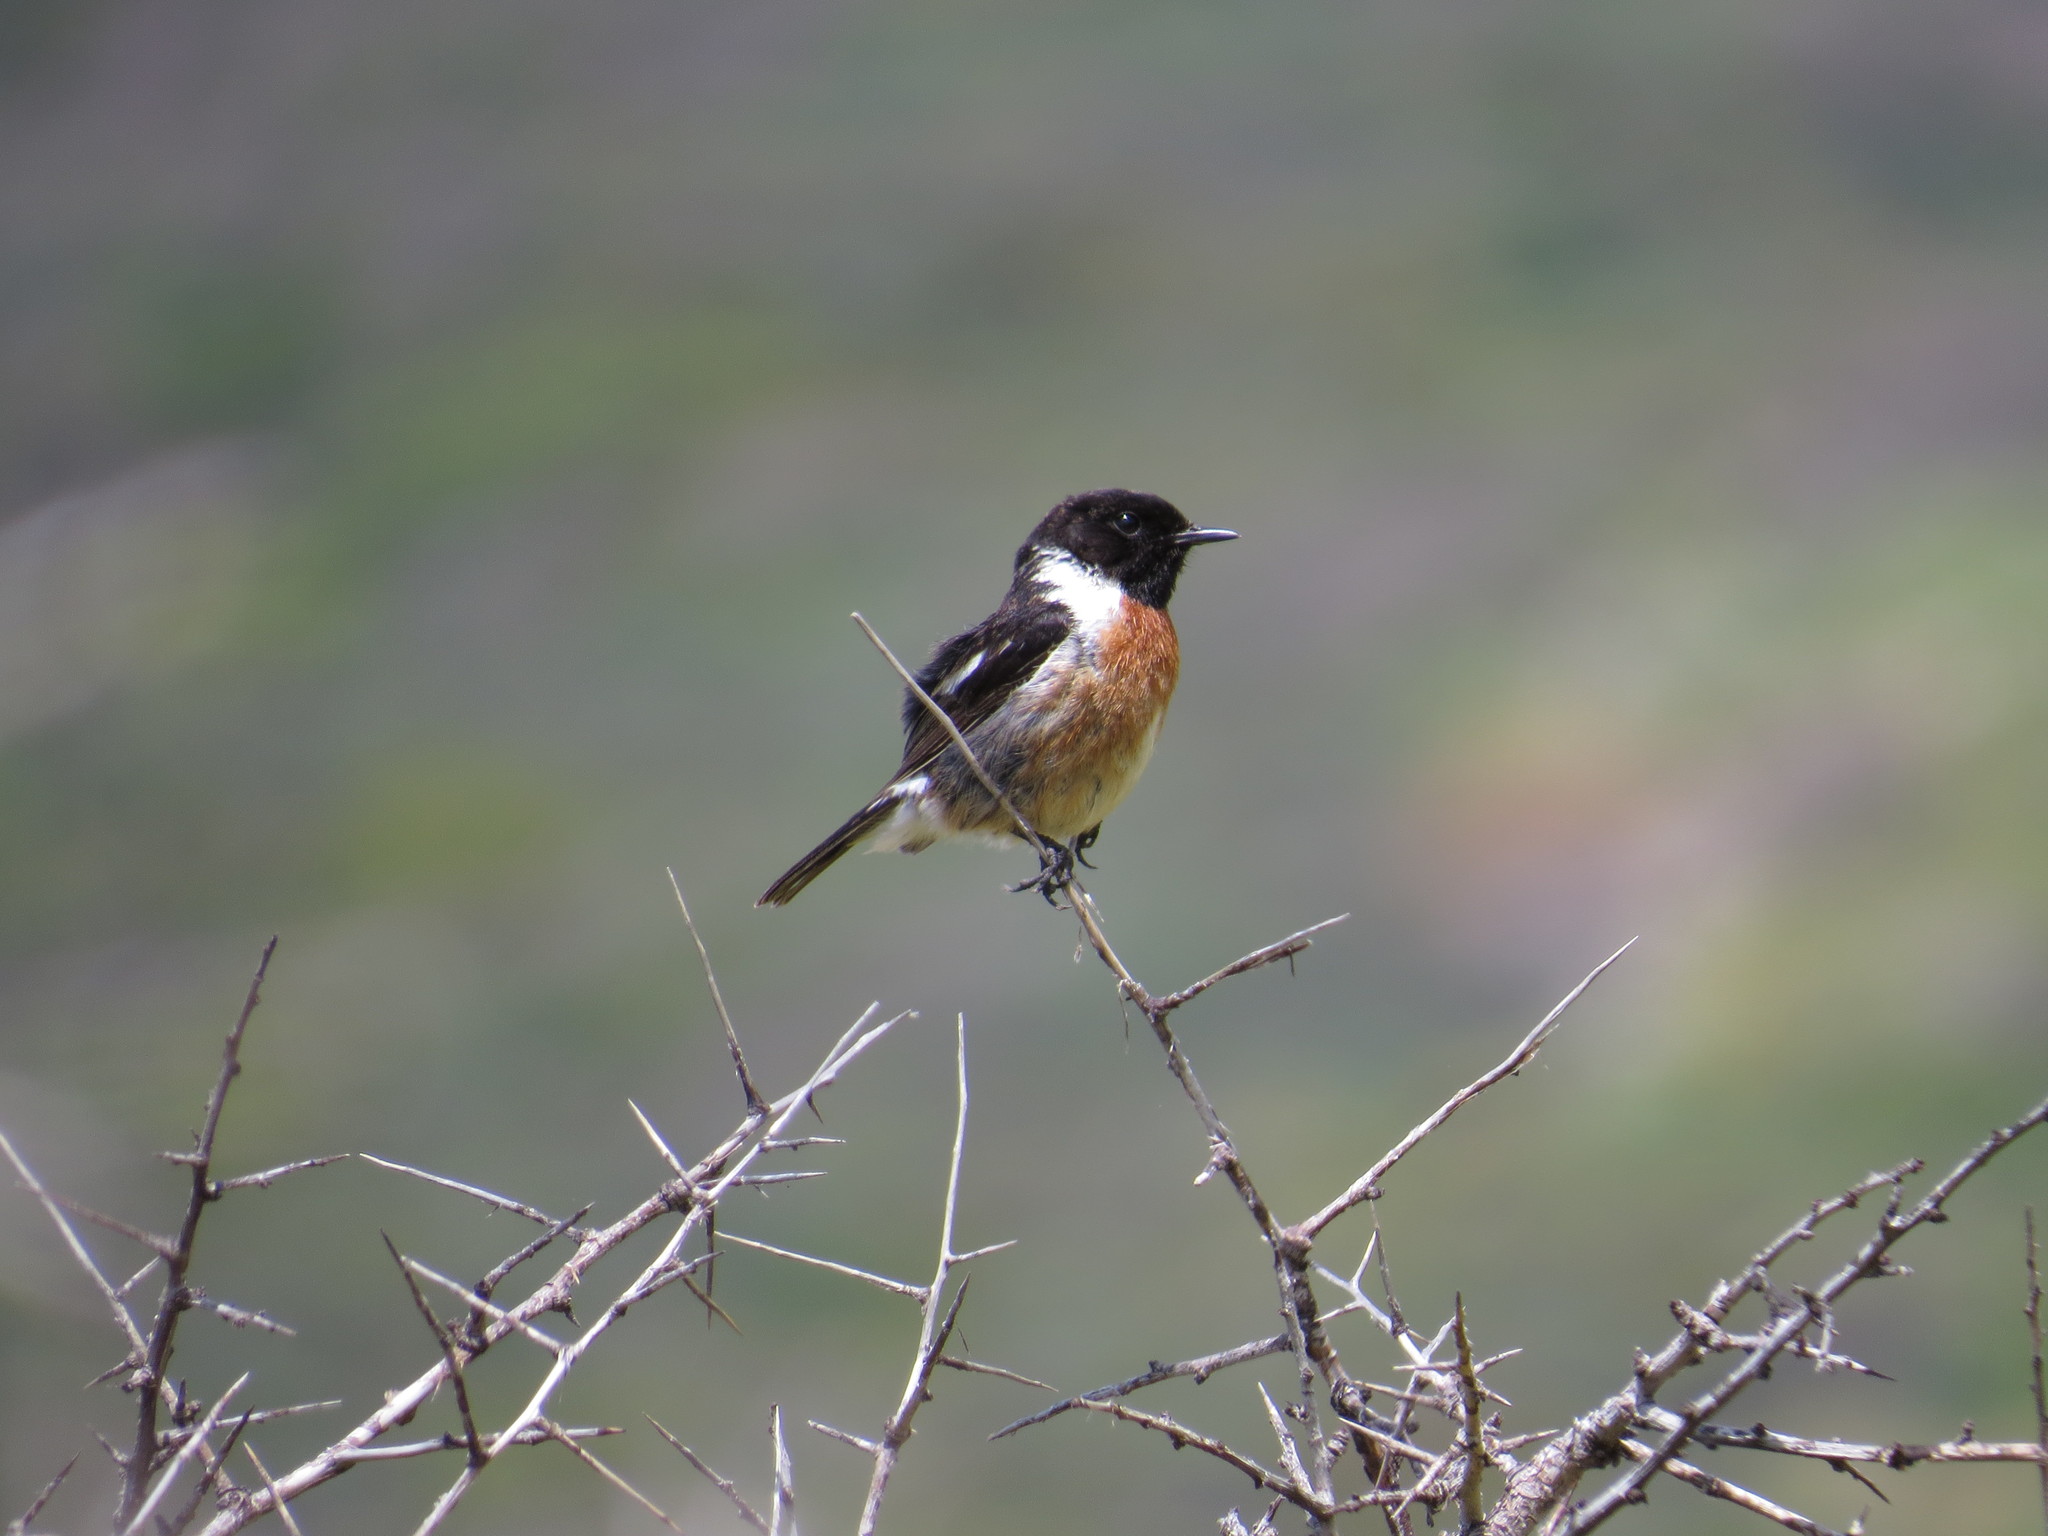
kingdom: Animalia
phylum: Chordata
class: Aves
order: Passeriformes
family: Muscicapidae
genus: Saxicola
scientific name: Saxicola rubicola
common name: European stonechat
